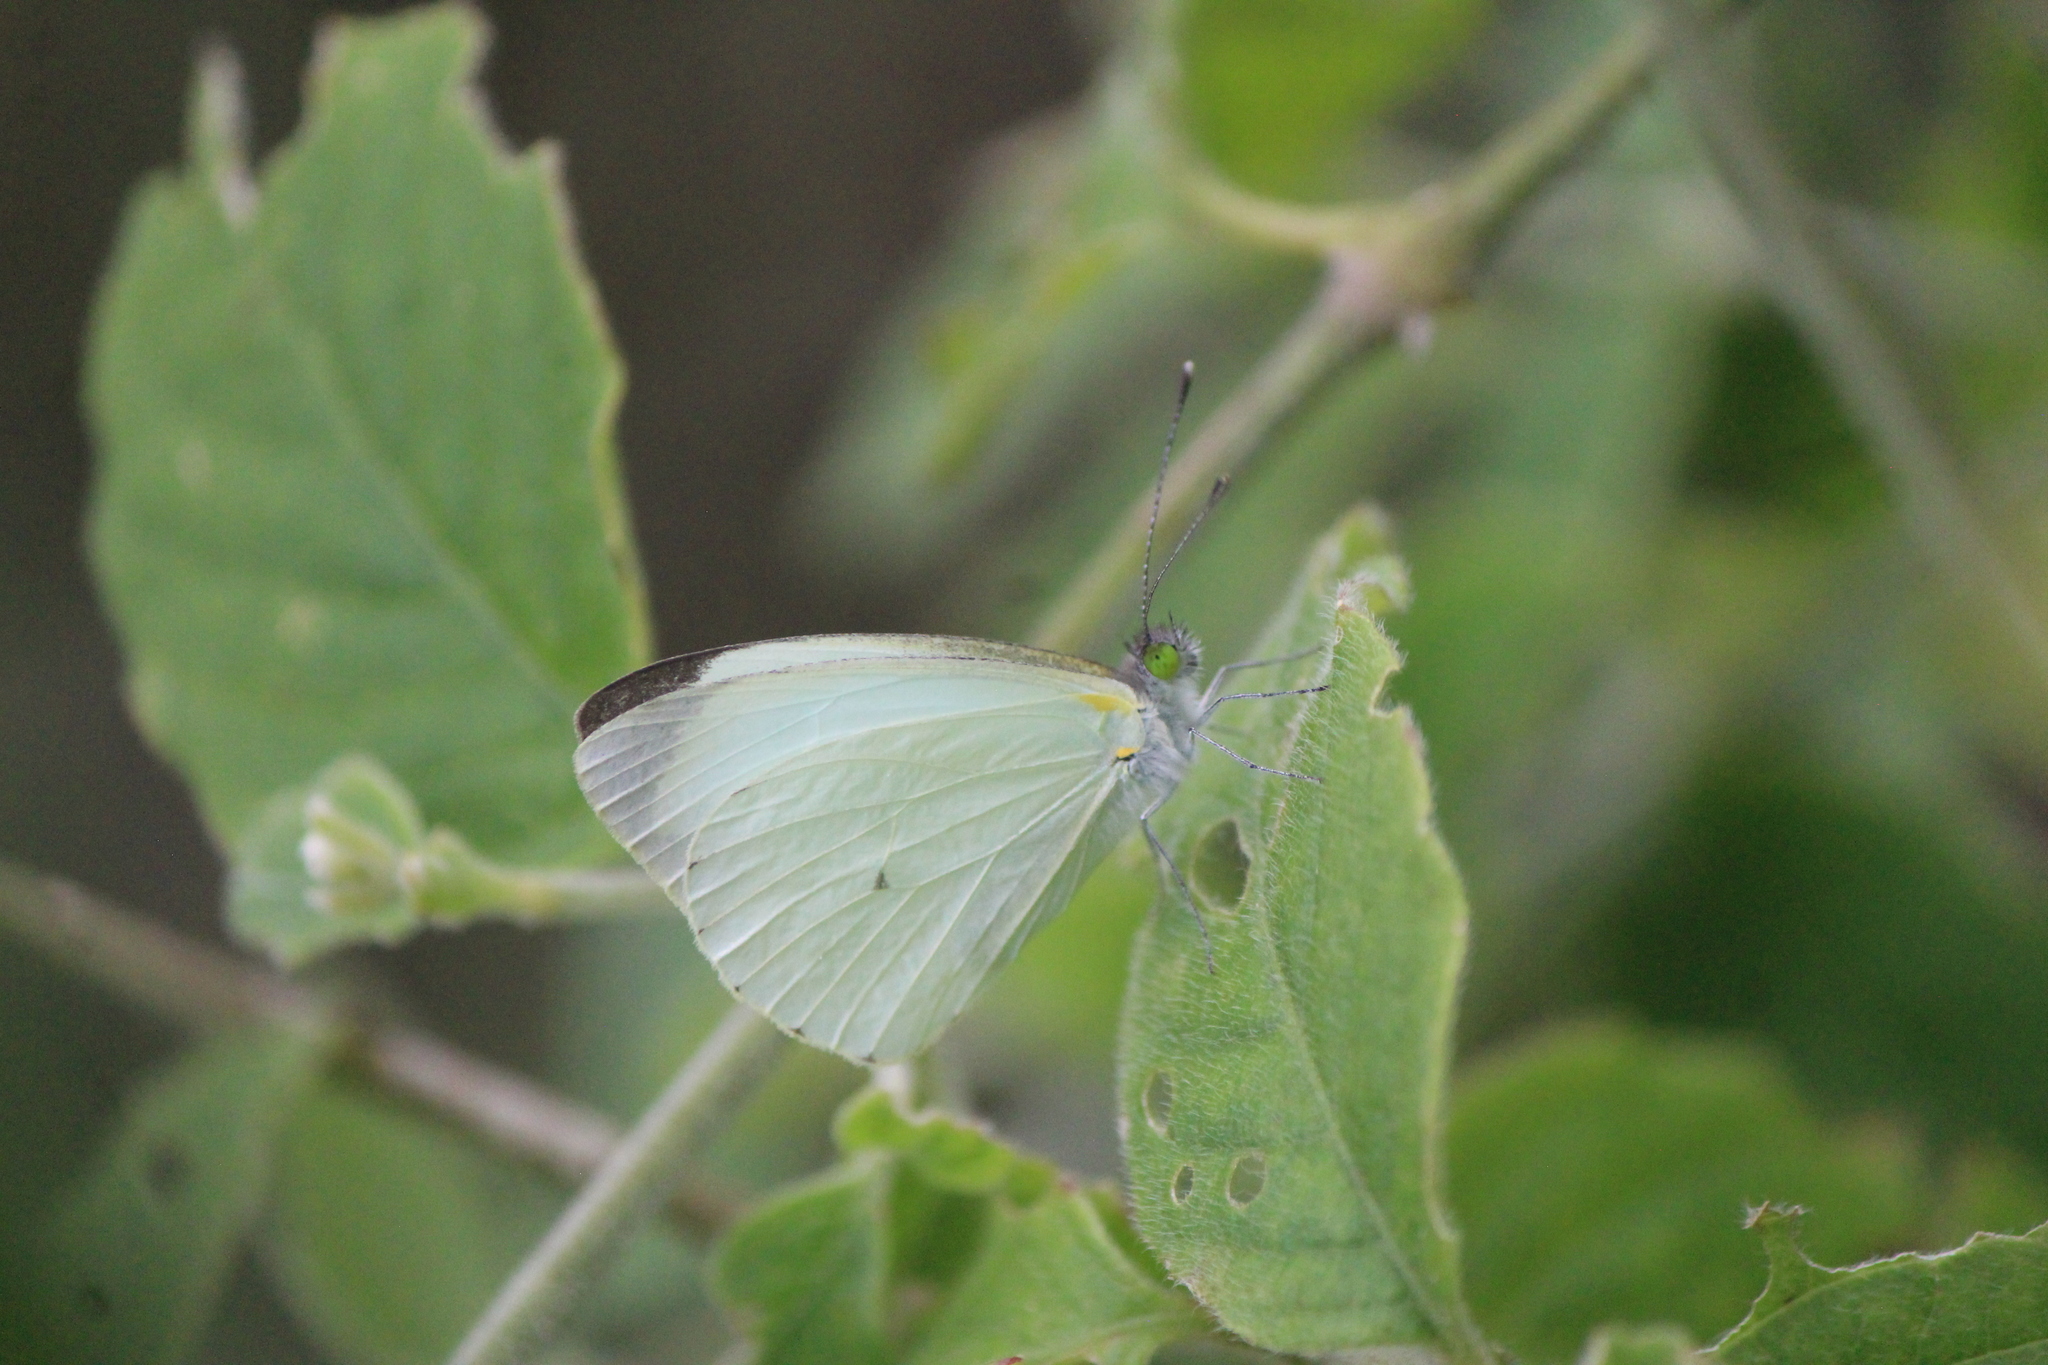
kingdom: Animalia
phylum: Arthropoda
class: Insecta
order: Lepidoptera
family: Pieridae
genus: Leptophobia
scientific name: Leptophobia aripa
